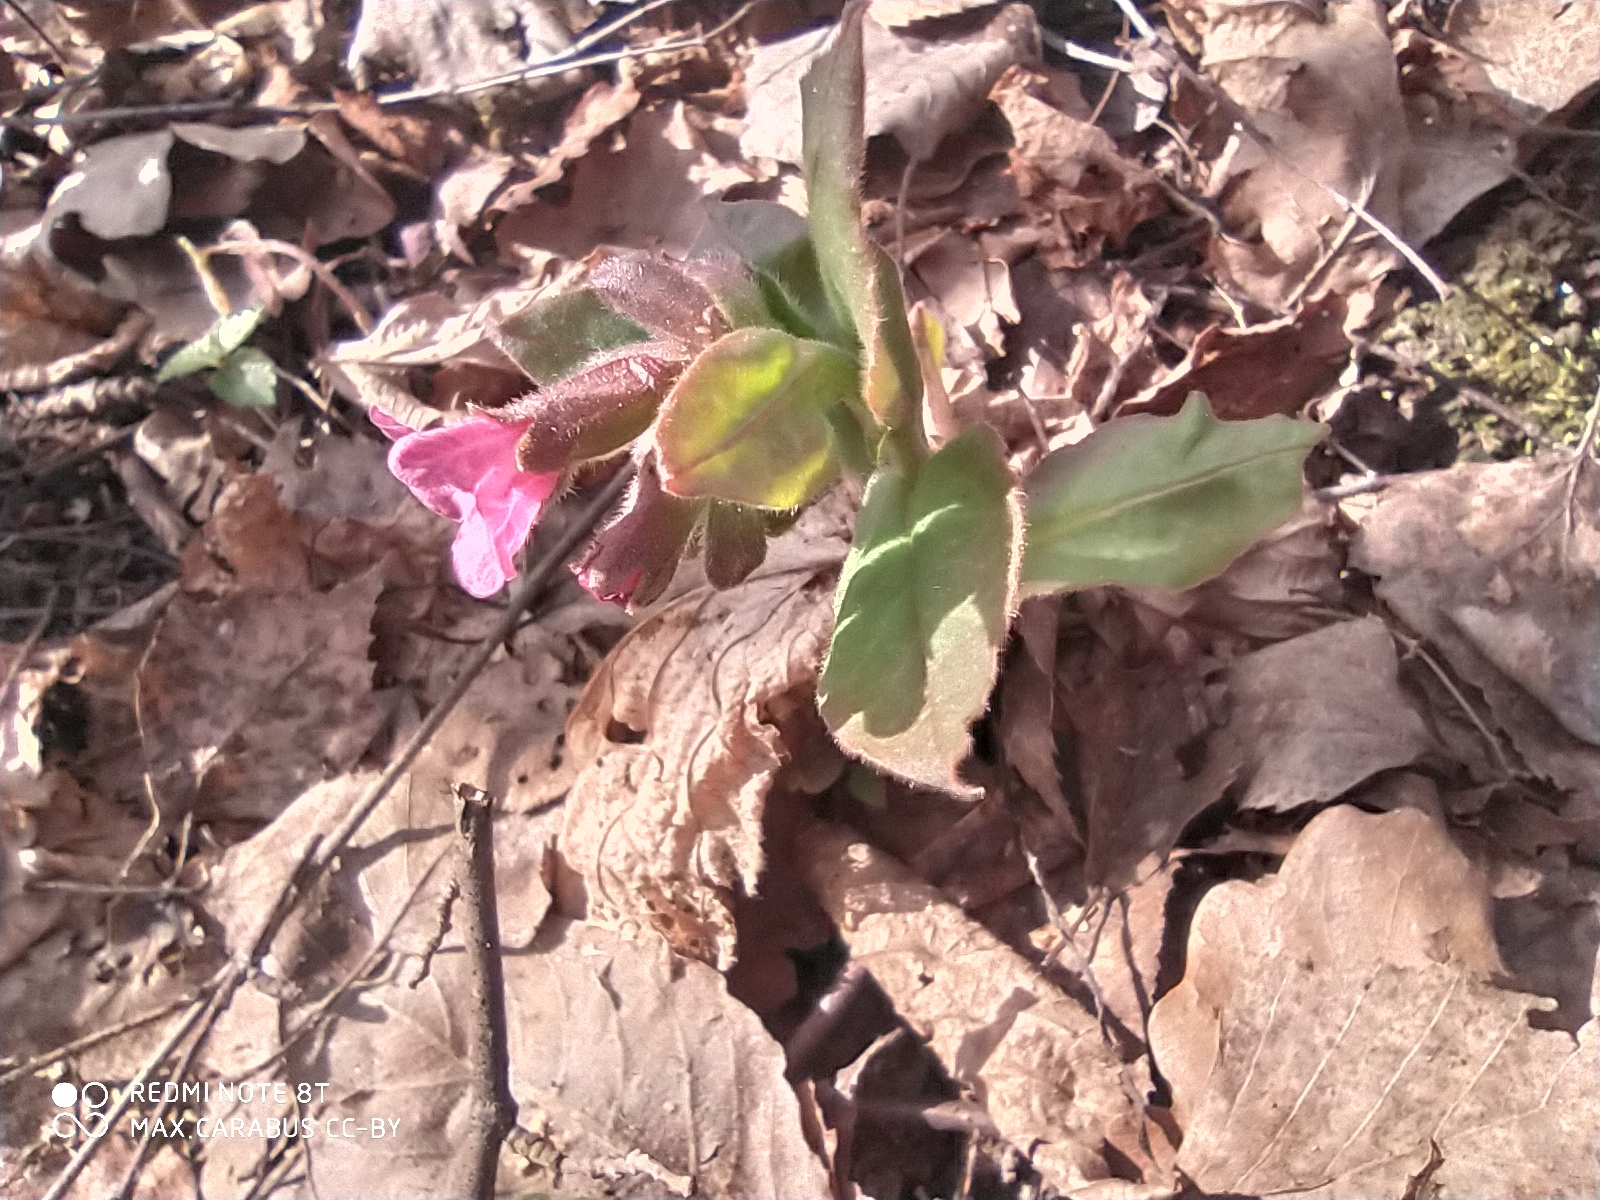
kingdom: Plantae
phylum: Tracheophyta
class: Magnoliopsida
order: Boraginales
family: Boraginaceae
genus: Pulmonaria
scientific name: Pulmonaria obscura
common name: Suffolk lungwort
